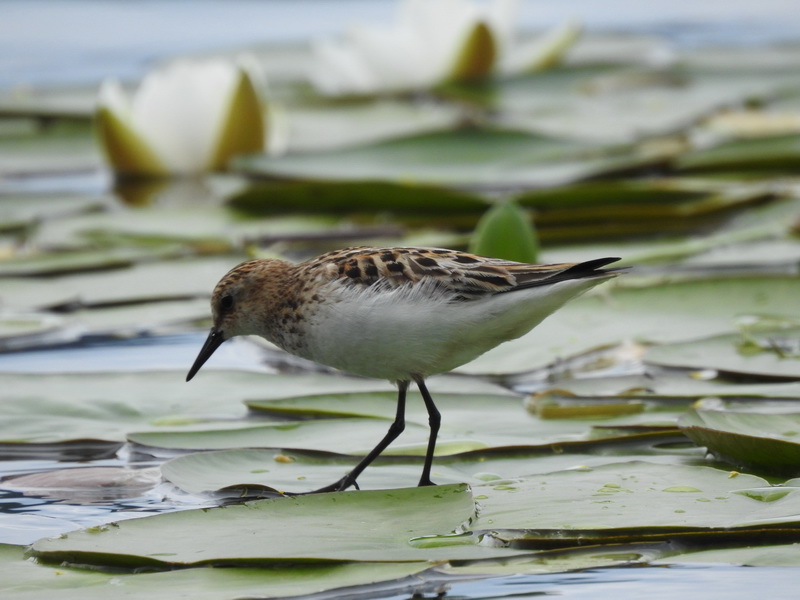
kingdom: Animalia
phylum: Chordata
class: Aves
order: Charadriiformes
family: Scolopacidae
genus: Calidris
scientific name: Calidris minuta
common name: Little stint
